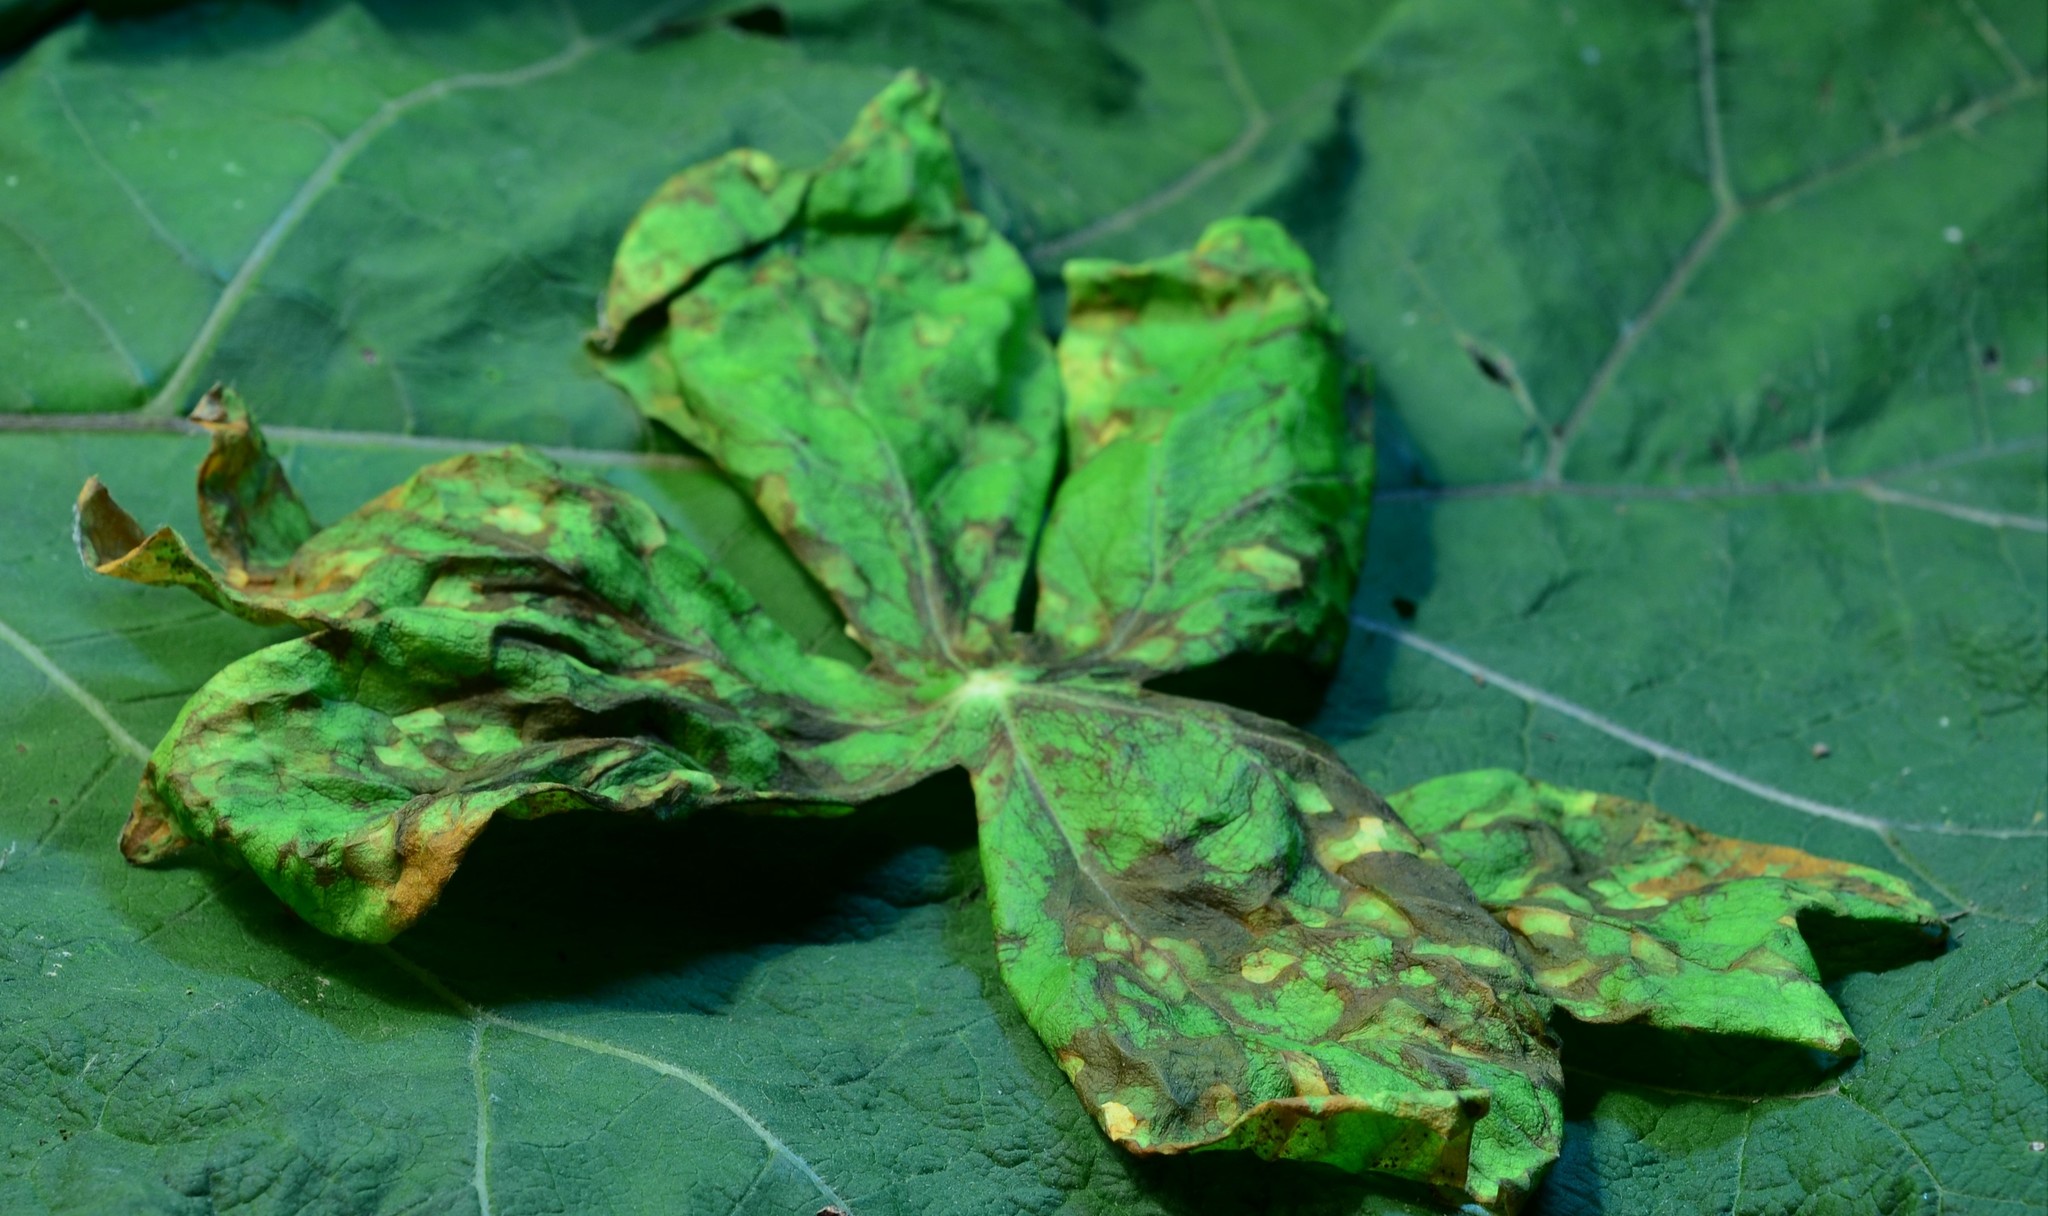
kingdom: Fungi
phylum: Basidiomycota
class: Pucciniomycetes
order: Pucciniales
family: Pucciniaceae
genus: Puccinia
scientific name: Puccinia podophylli
